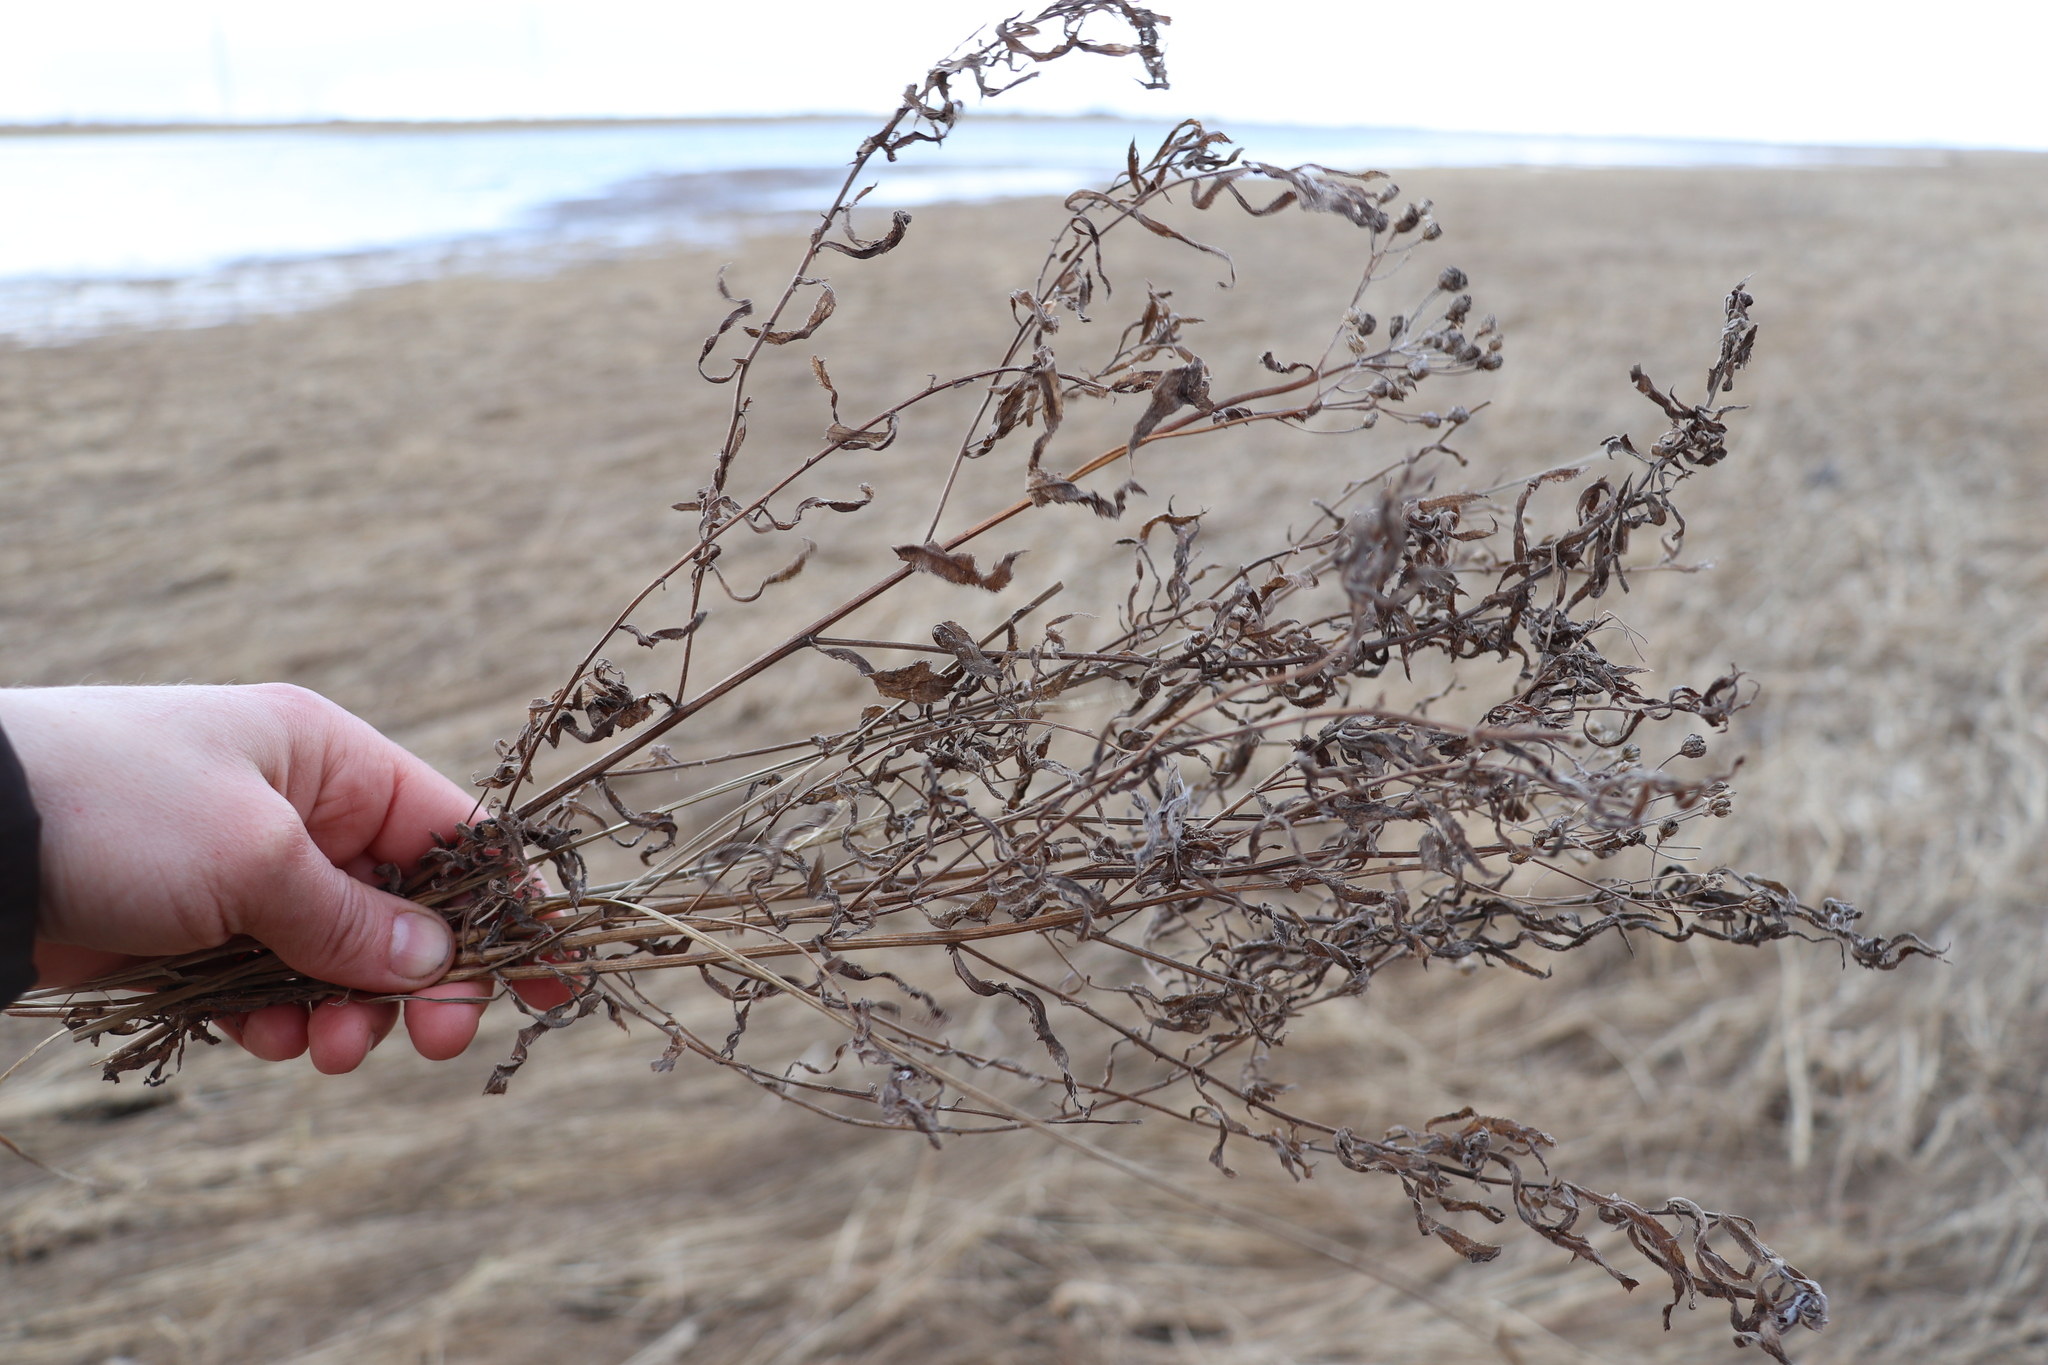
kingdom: Plantae
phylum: Tracheophyta
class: Magnoliopsida
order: Asterales
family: Asteraceae
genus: Achillea
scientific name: Achillea salicifolia
